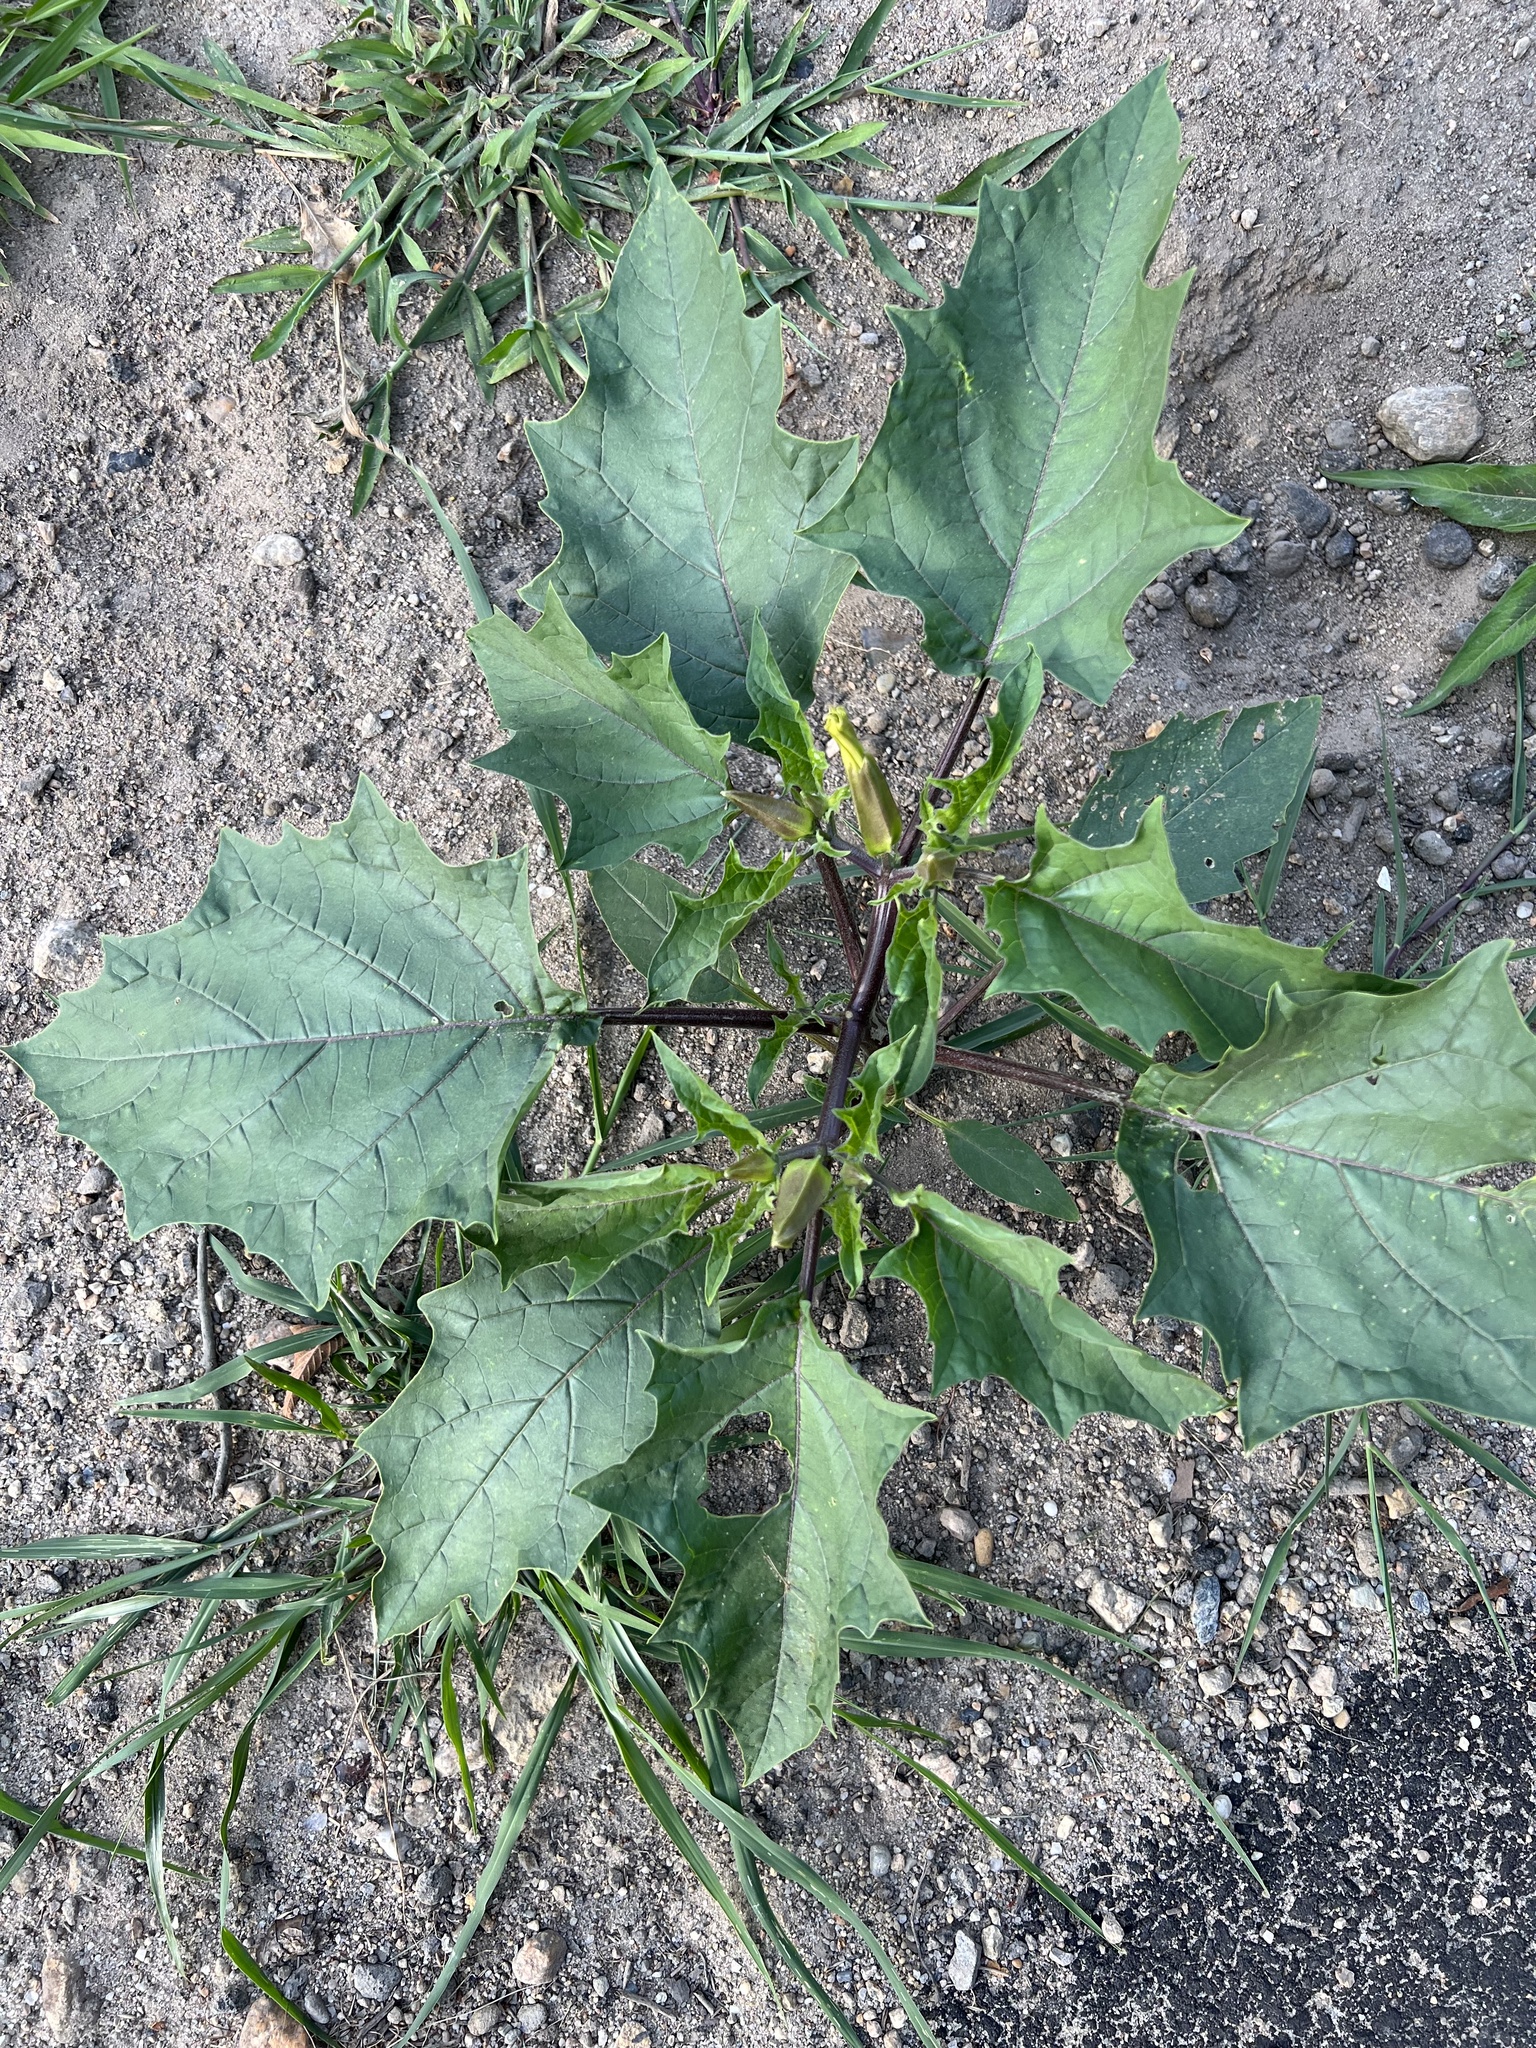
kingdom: Plantae
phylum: Tracheophyta
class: Magnoliopsida
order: Solanales
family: Solanaceae
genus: Datura
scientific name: Datura stramonium
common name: Thorn-apple
